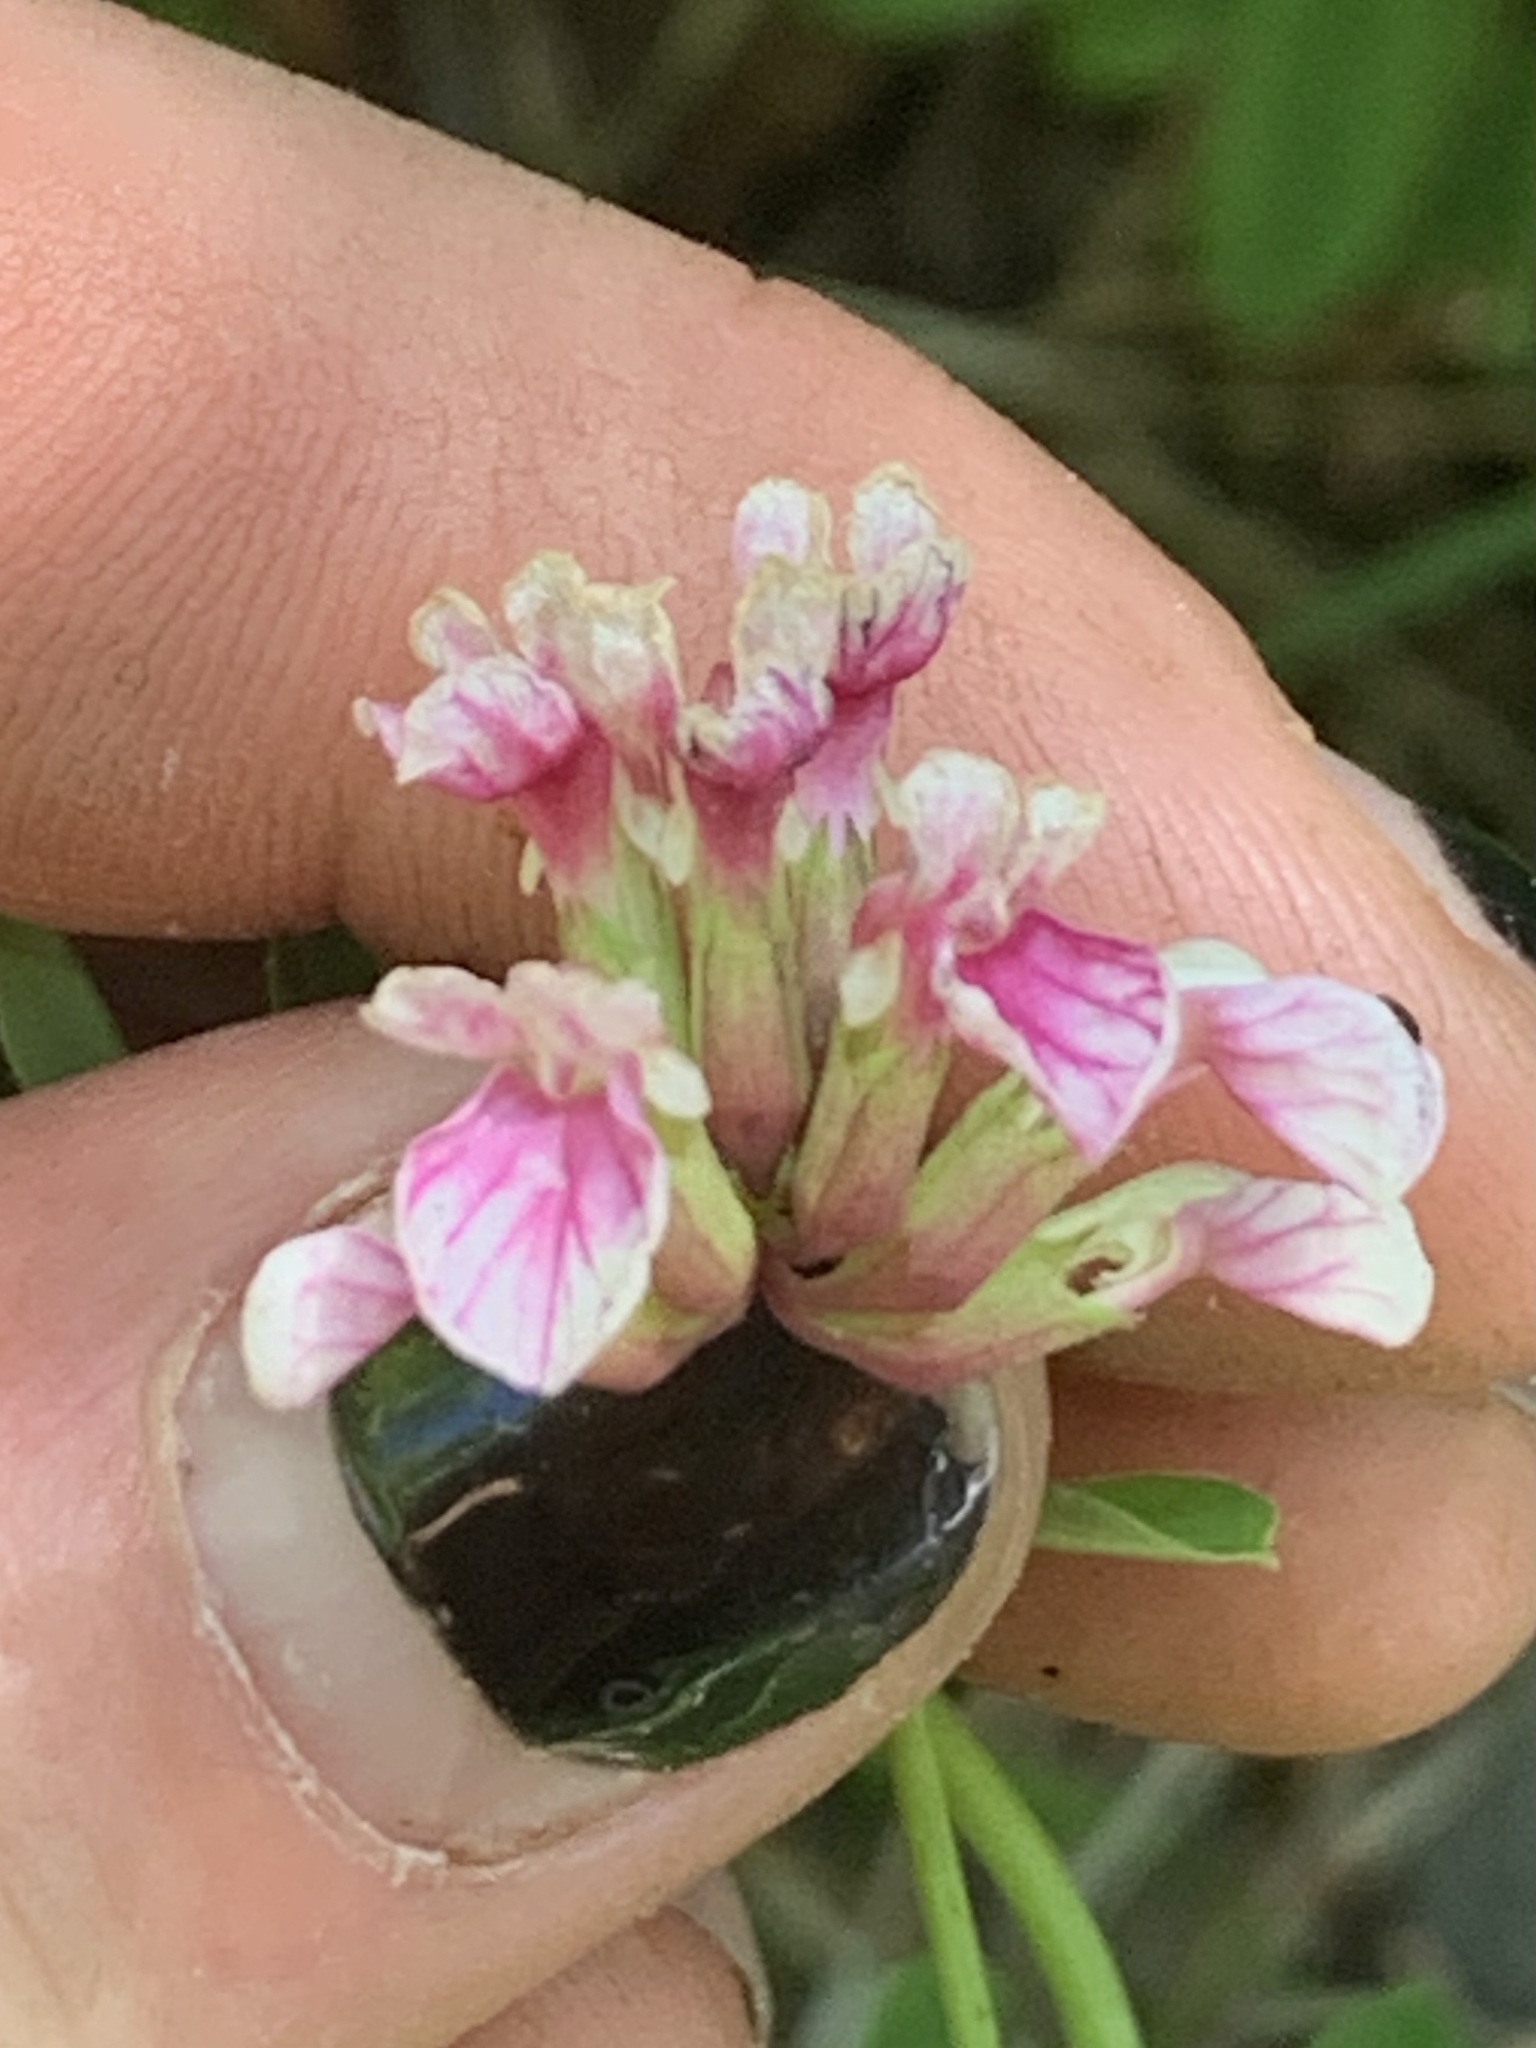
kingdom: Plantae
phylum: Tracheophyta
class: Magnoliopsida
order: Fabales
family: Fabaceae
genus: Hosackia
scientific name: Hosackia rosea
